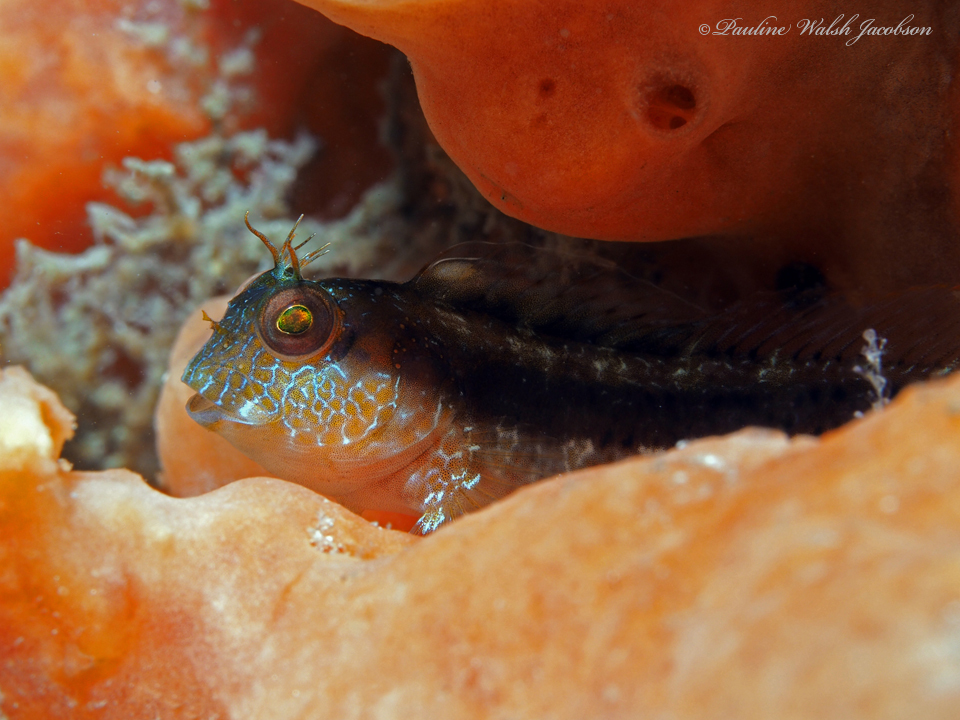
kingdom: Animalia
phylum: Chordata
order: Perciformes
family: Blenniidae
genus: Parablennius
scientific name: Parablennius marmoreus
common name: Seaweed blenny
